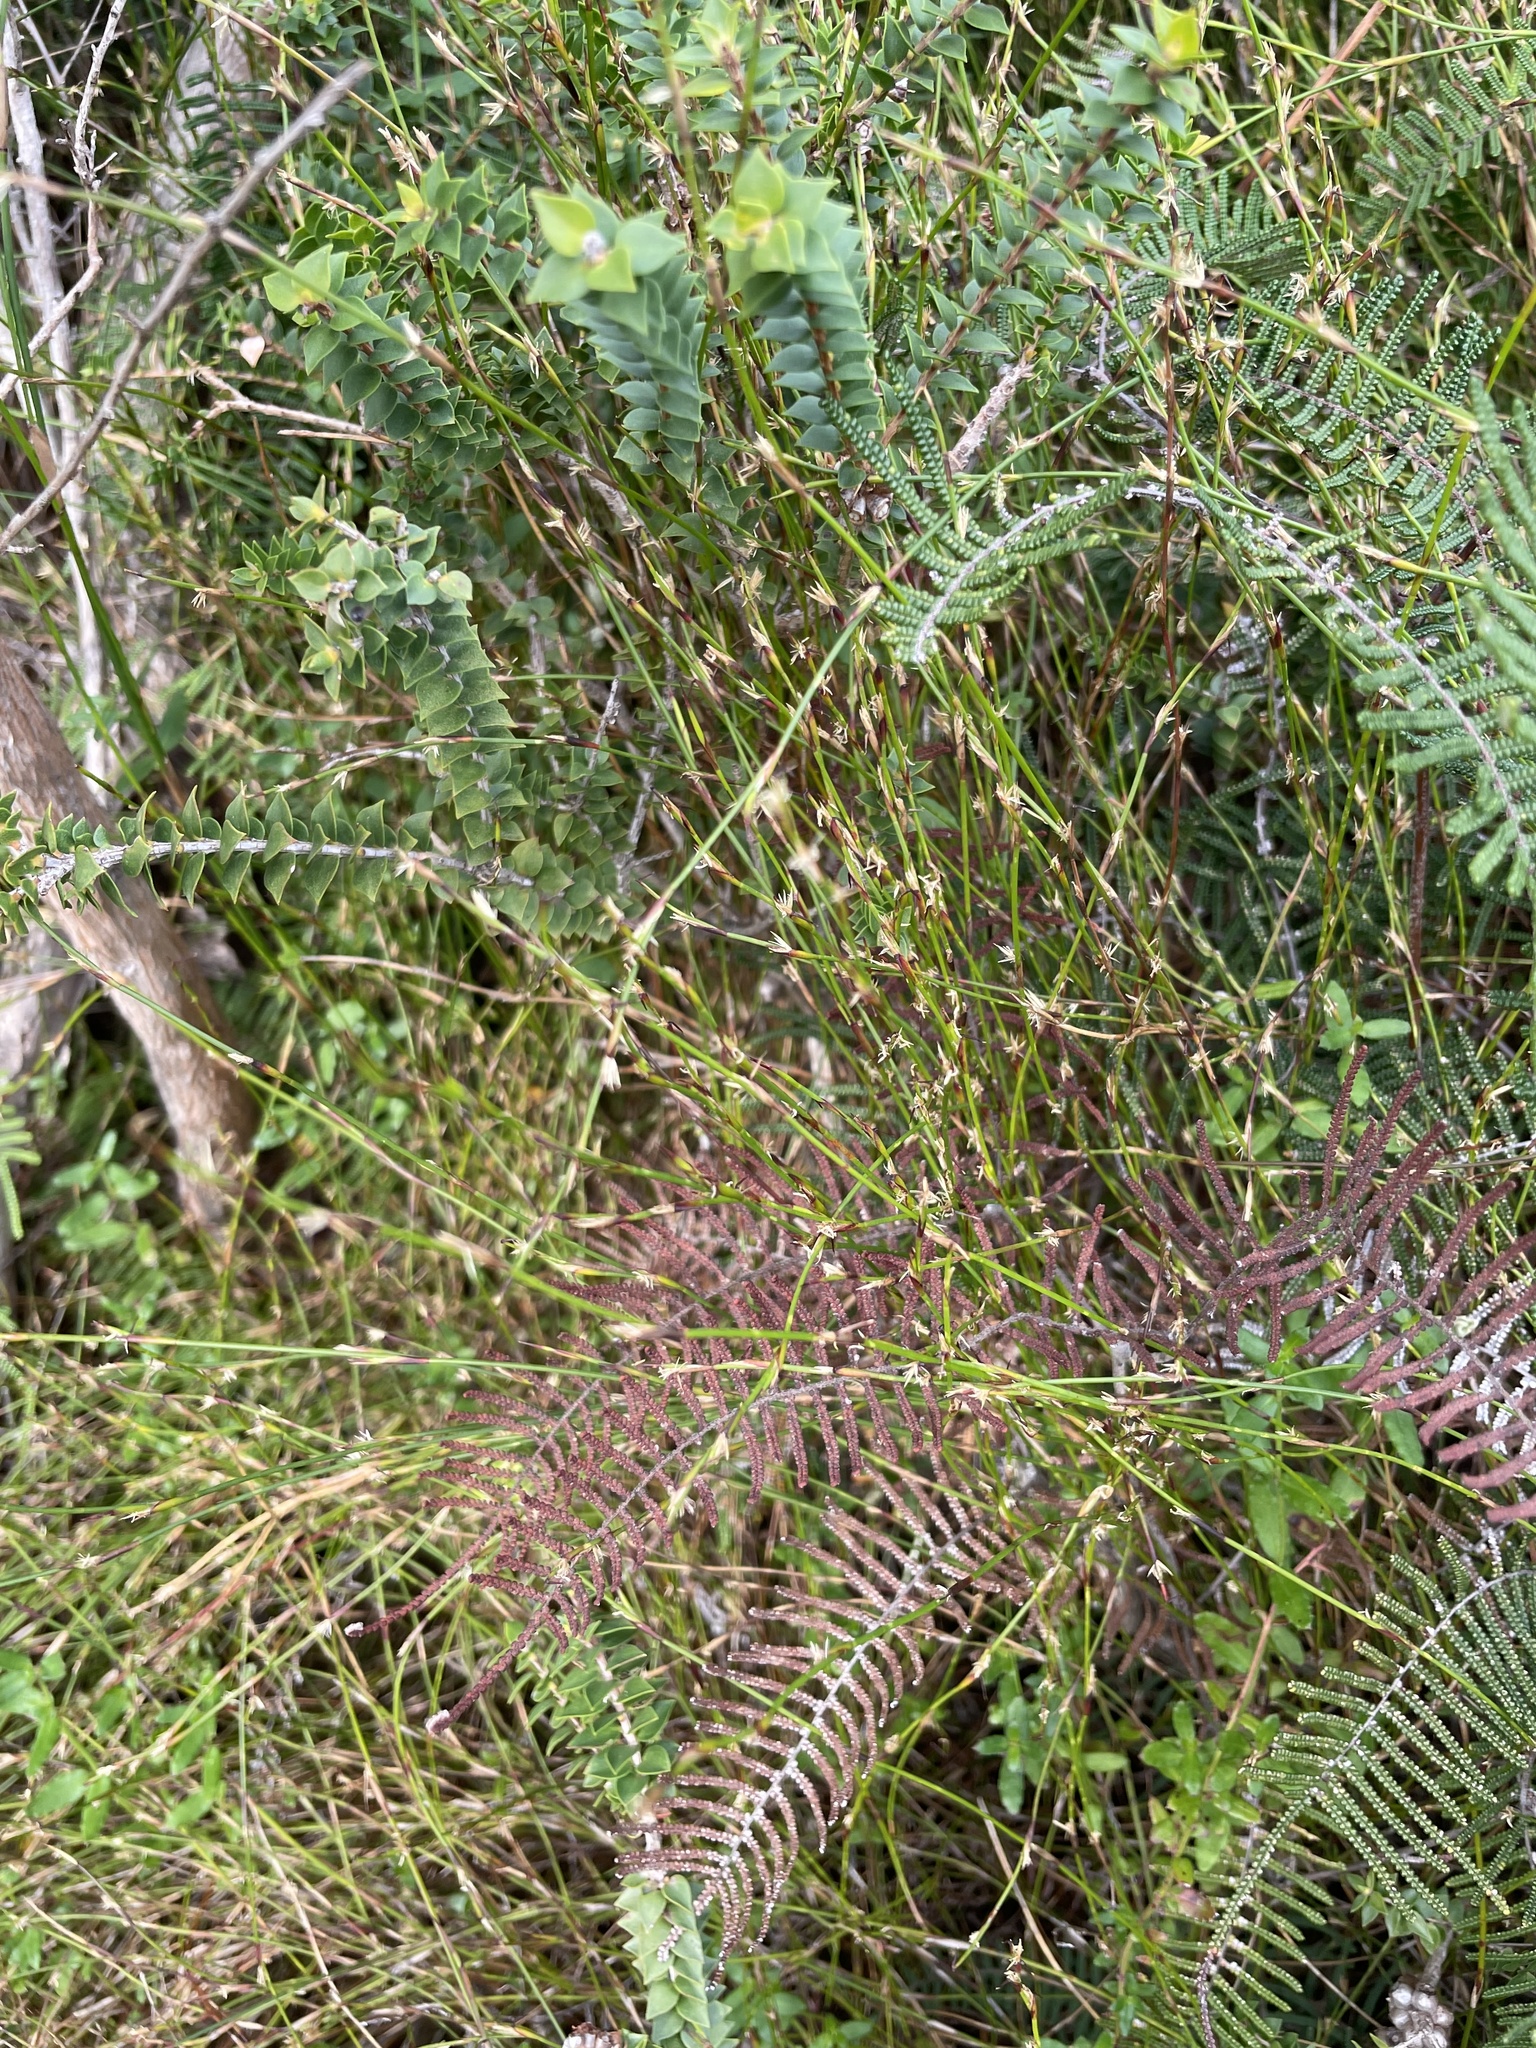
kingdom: Plantae
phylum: Tracheophyta
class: Liliopsida
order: Poales
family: Restionaceae
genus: Empodisma
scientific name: Empodisma minus
